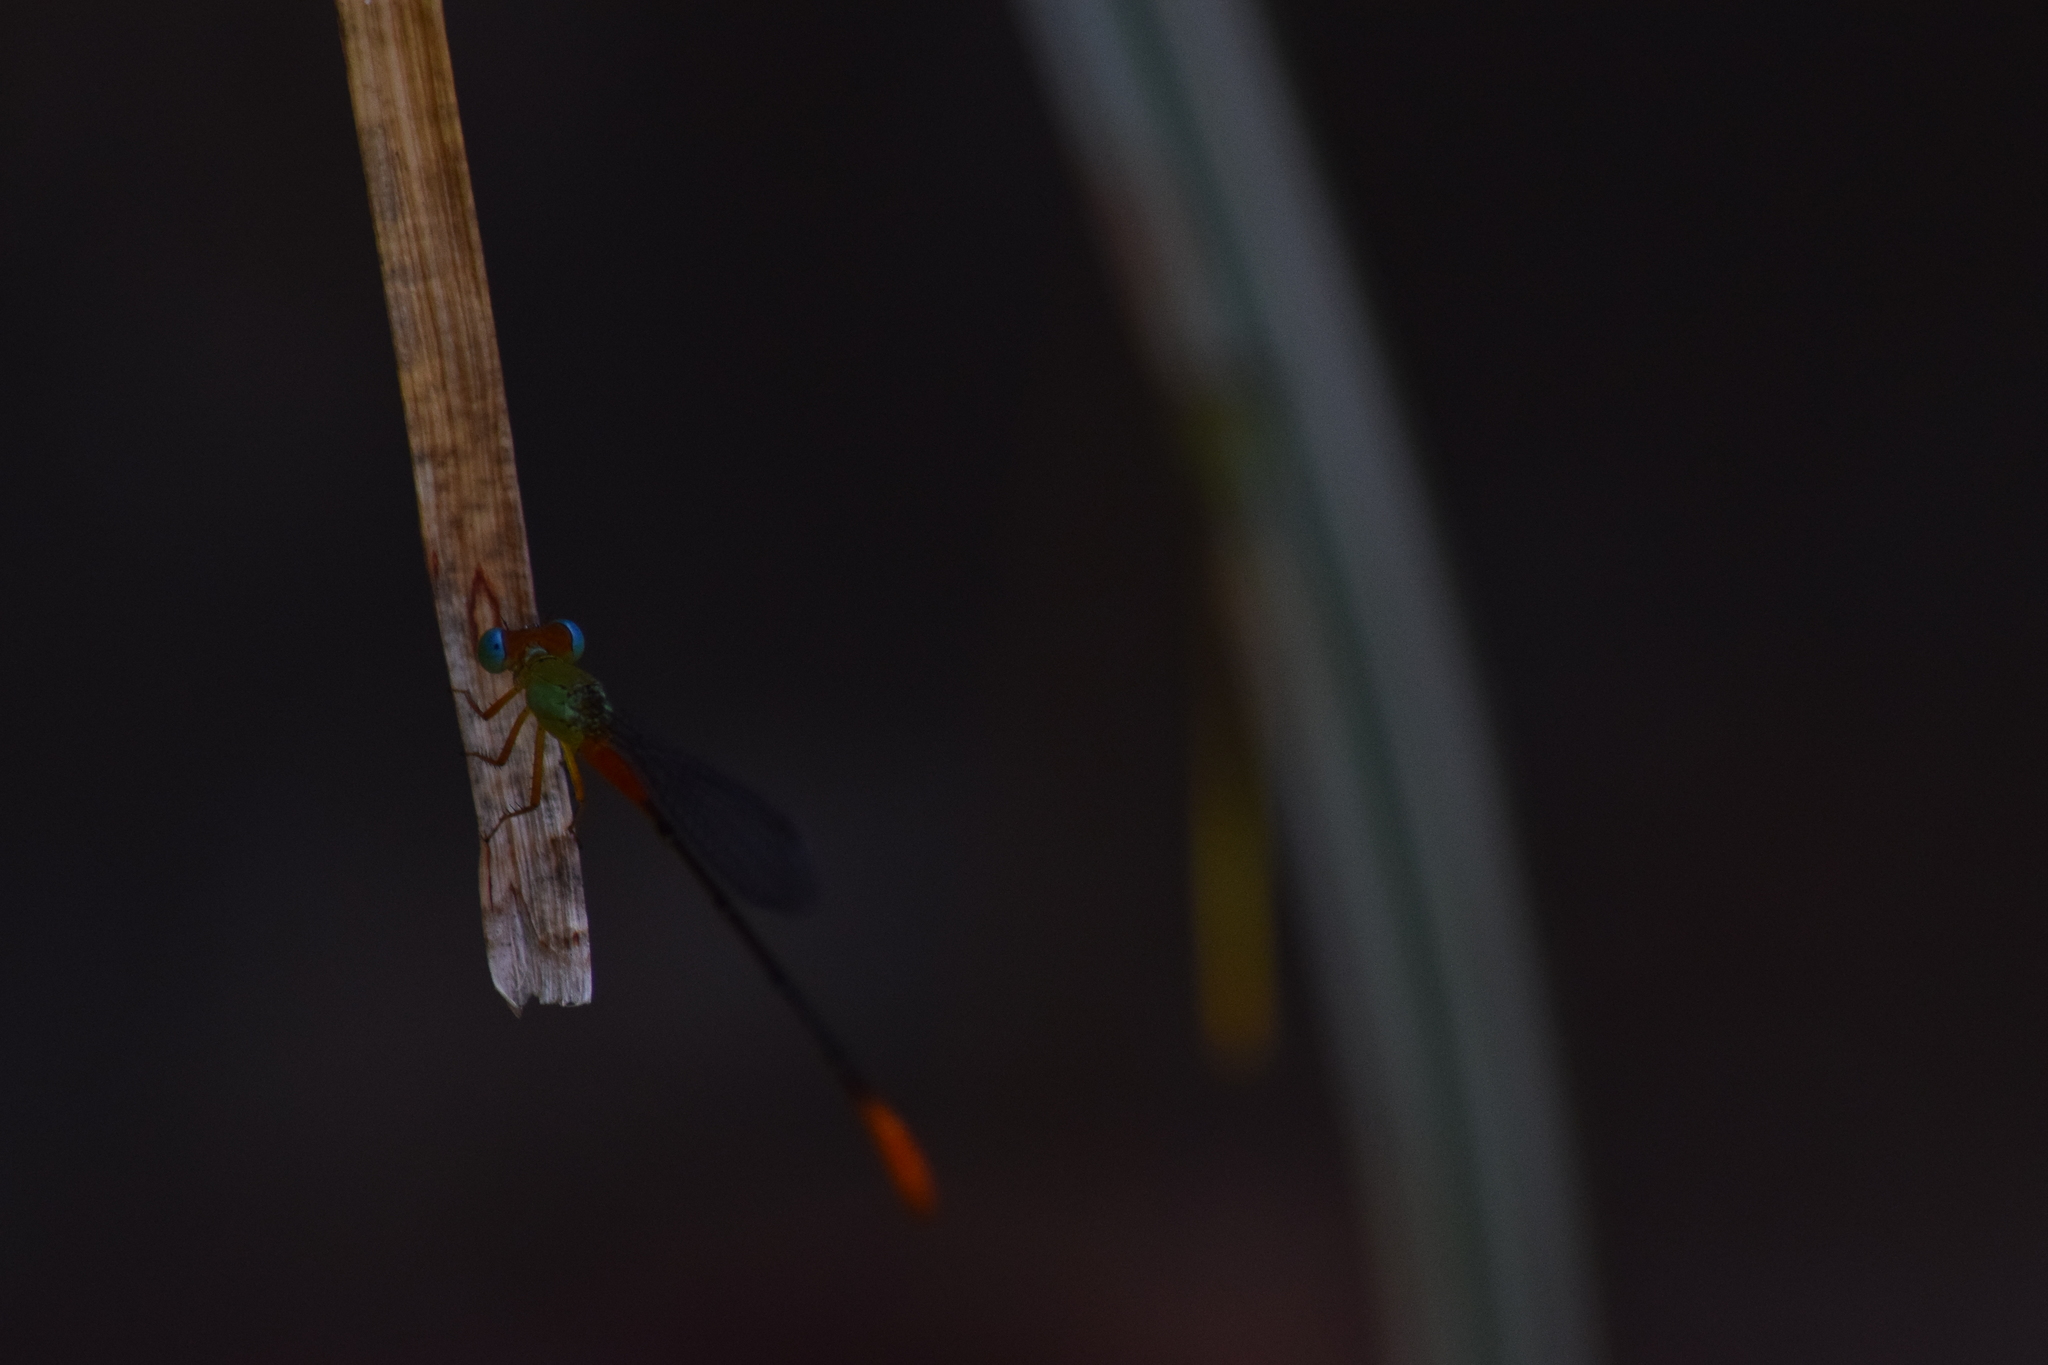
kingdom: Animalia
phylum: Arthropoda
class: Insecta
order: Odonata
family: Coenagrionidae
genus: Ceriagrion
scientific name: Ceriagrion cerinorubellum
